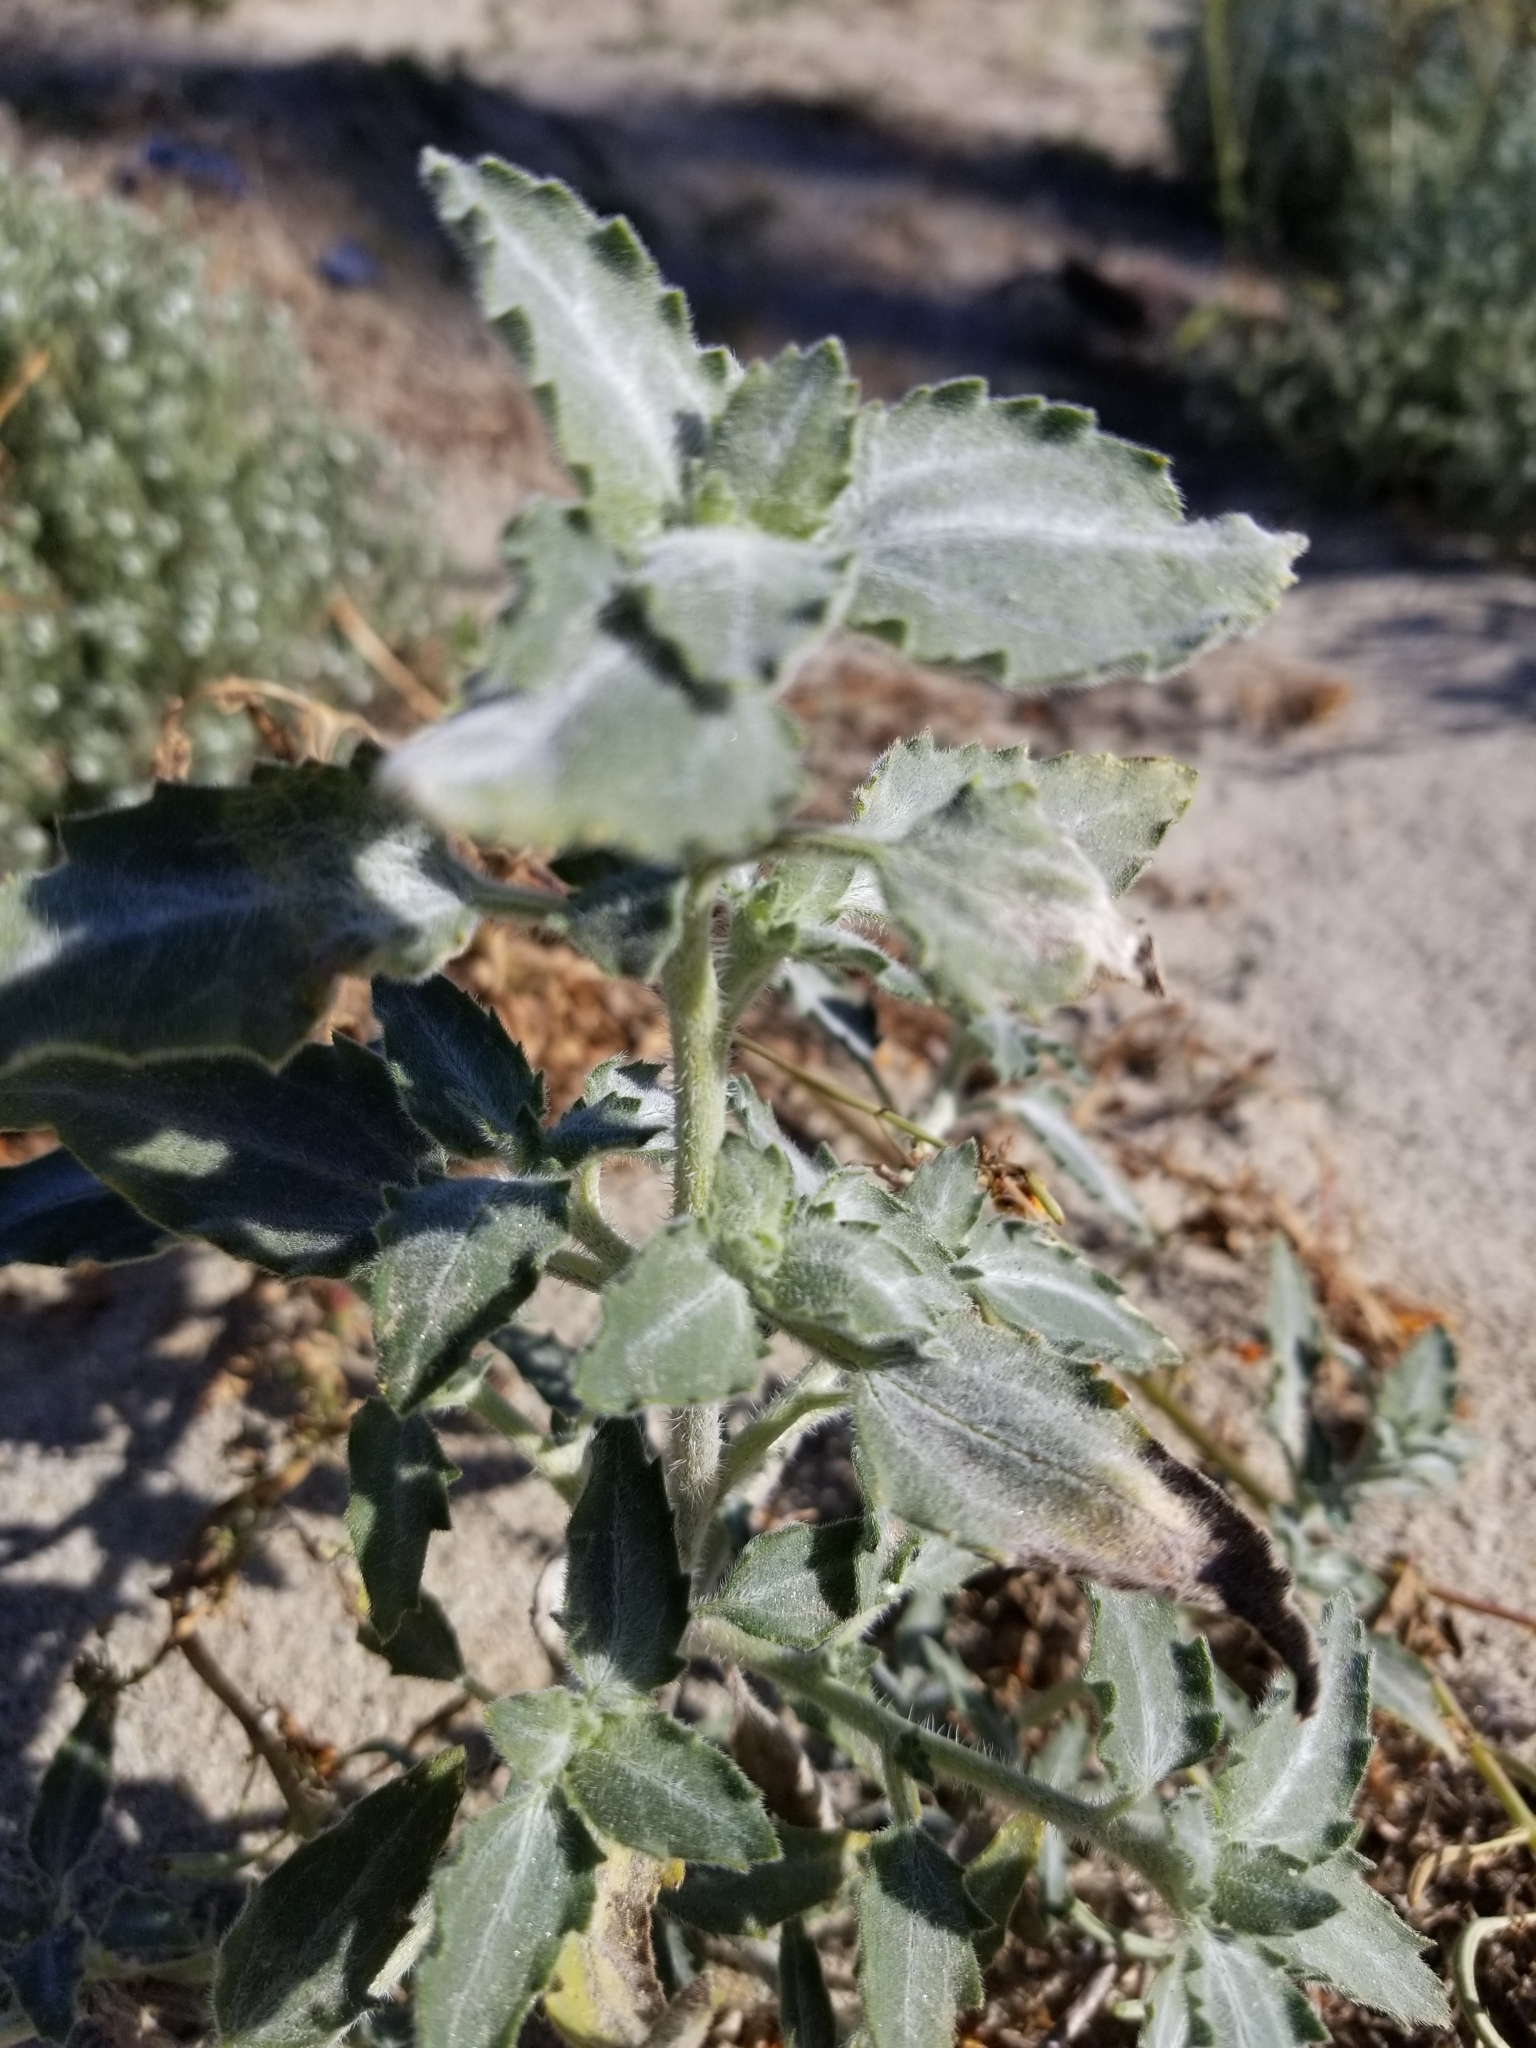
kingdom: Plantae
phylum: Tracheophyta
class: Magnoliopsida
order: Asterales
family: Asteraceae
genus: Dicoria
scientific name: Dicoria canescens
